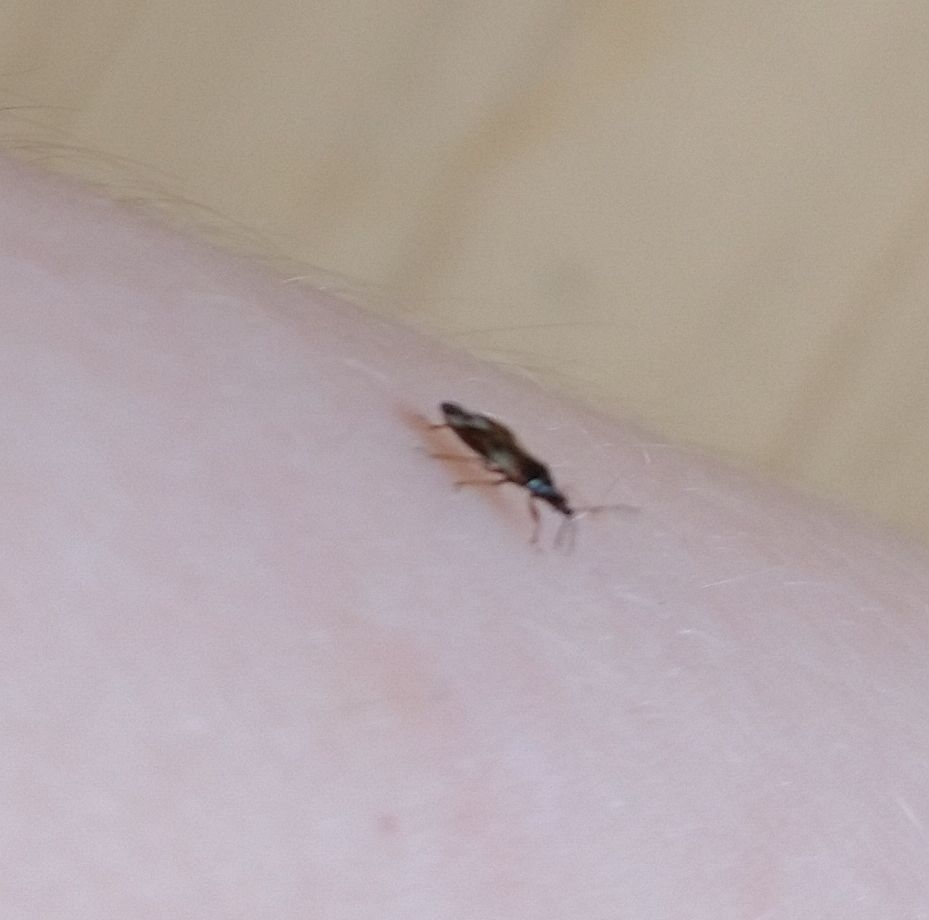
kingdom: Animalia
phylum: Arthropoda
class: Insecta
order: Hemiptera
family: Anthocoridae
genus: Anthocoris
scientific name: Anthocoris nemorum
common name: Minute pirate bug
